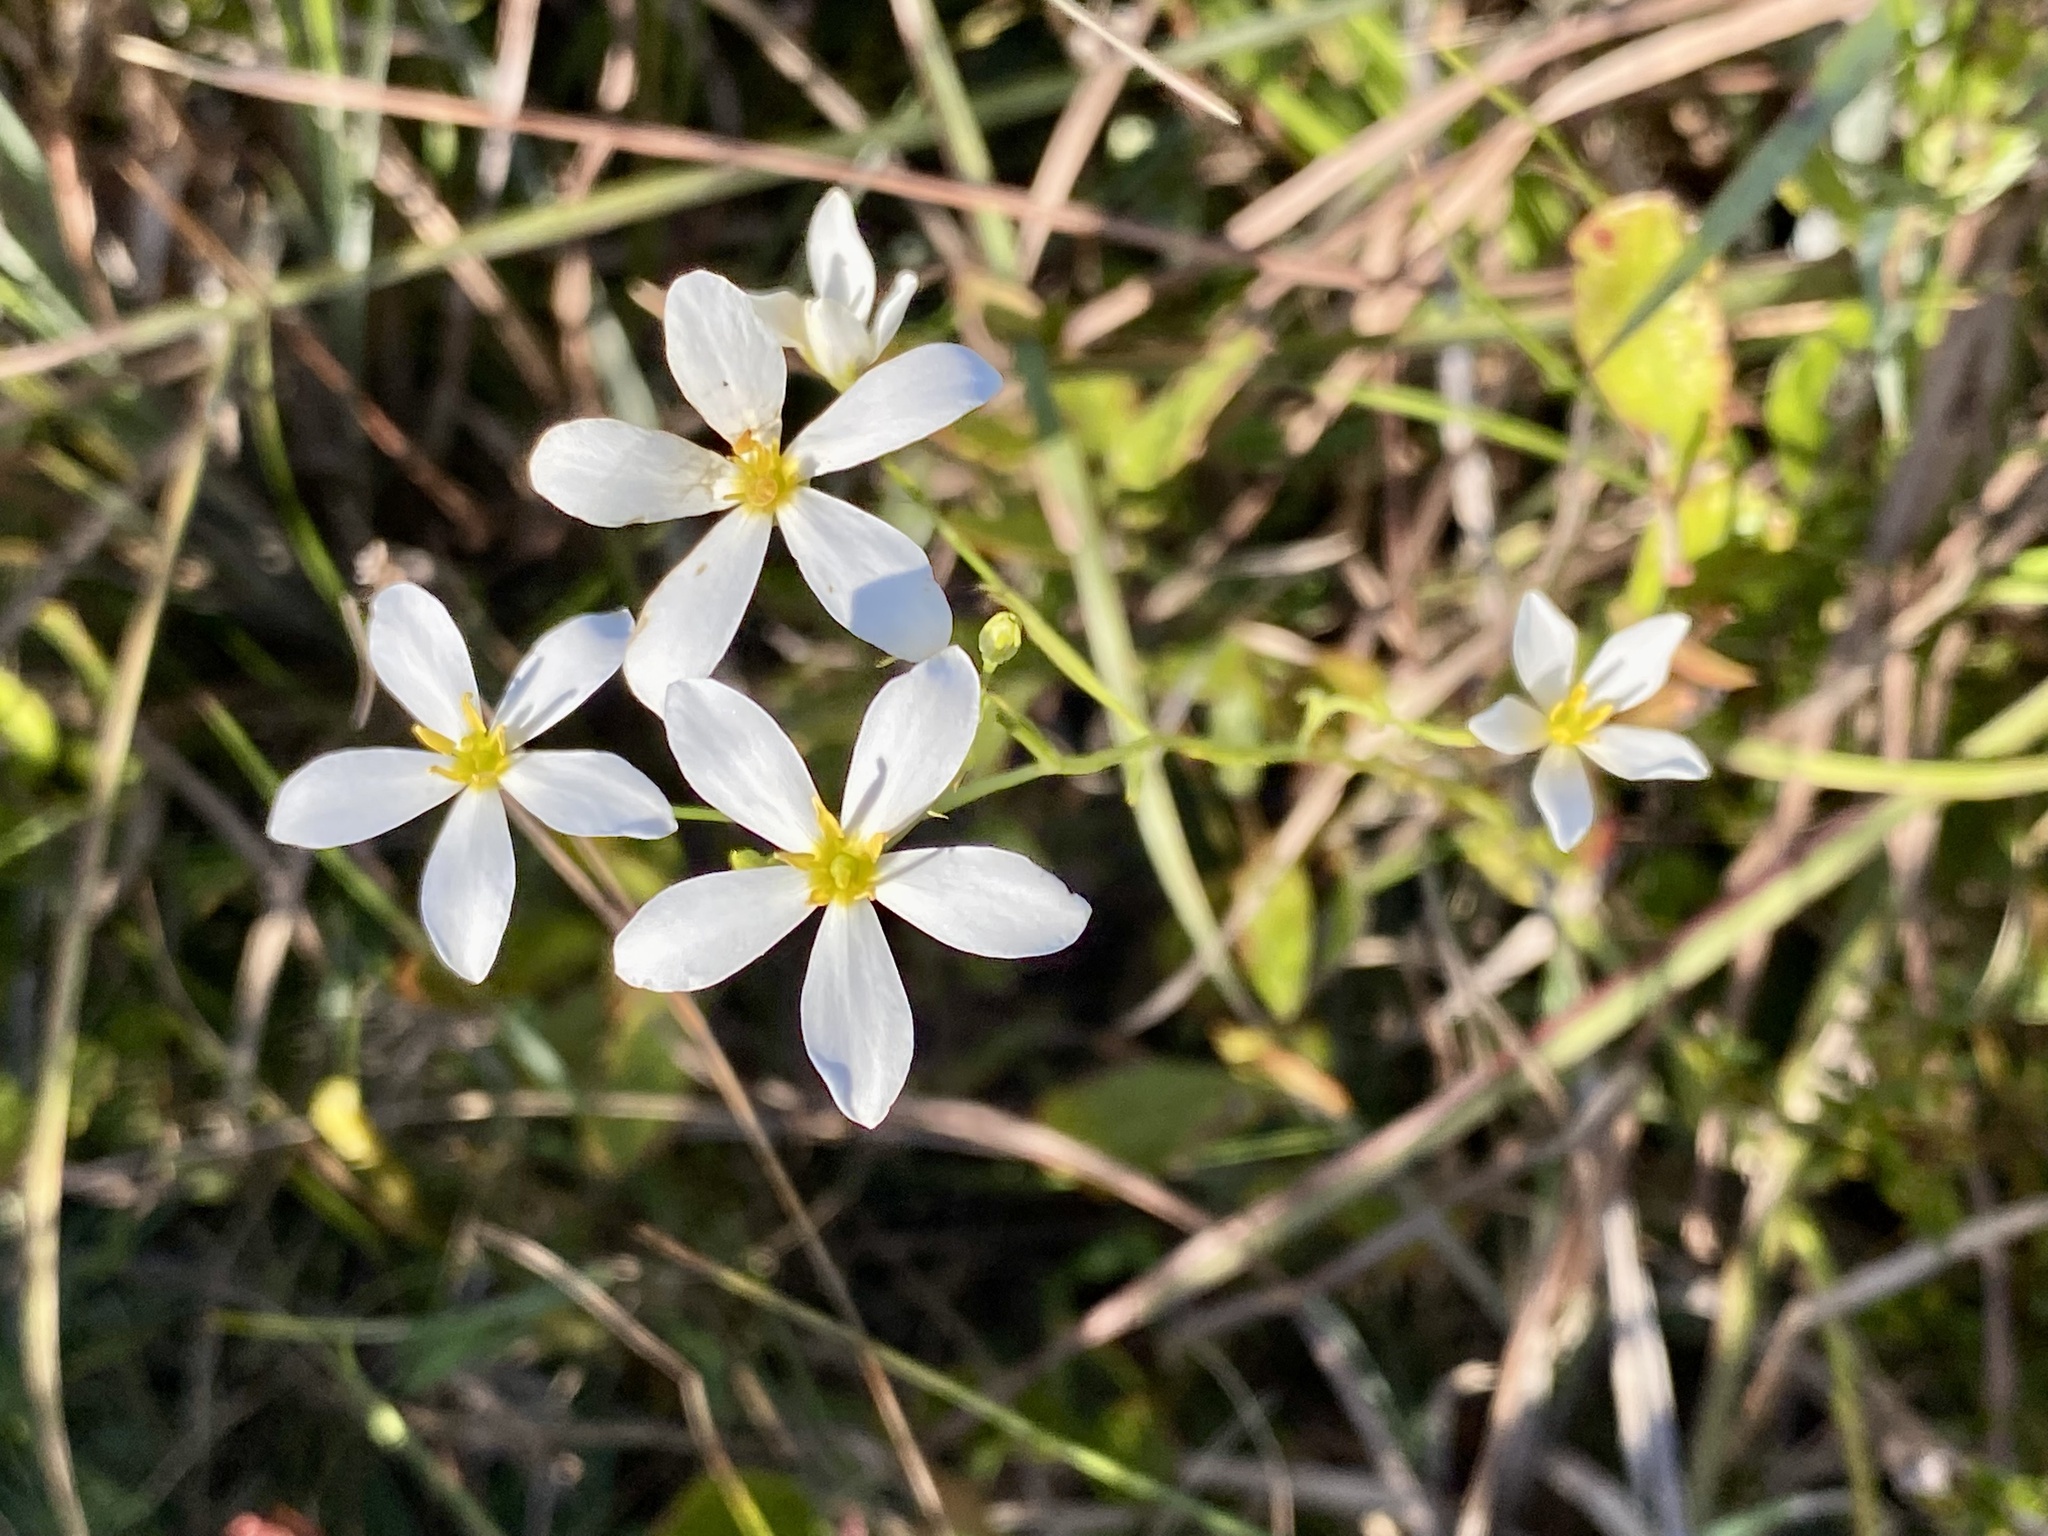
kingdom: Plantae
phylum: Tracheophyta
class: Magnoliopsida
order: Gentianales
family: Gentianaceae
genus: Sabatia
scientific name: Sabatia brevifolia
